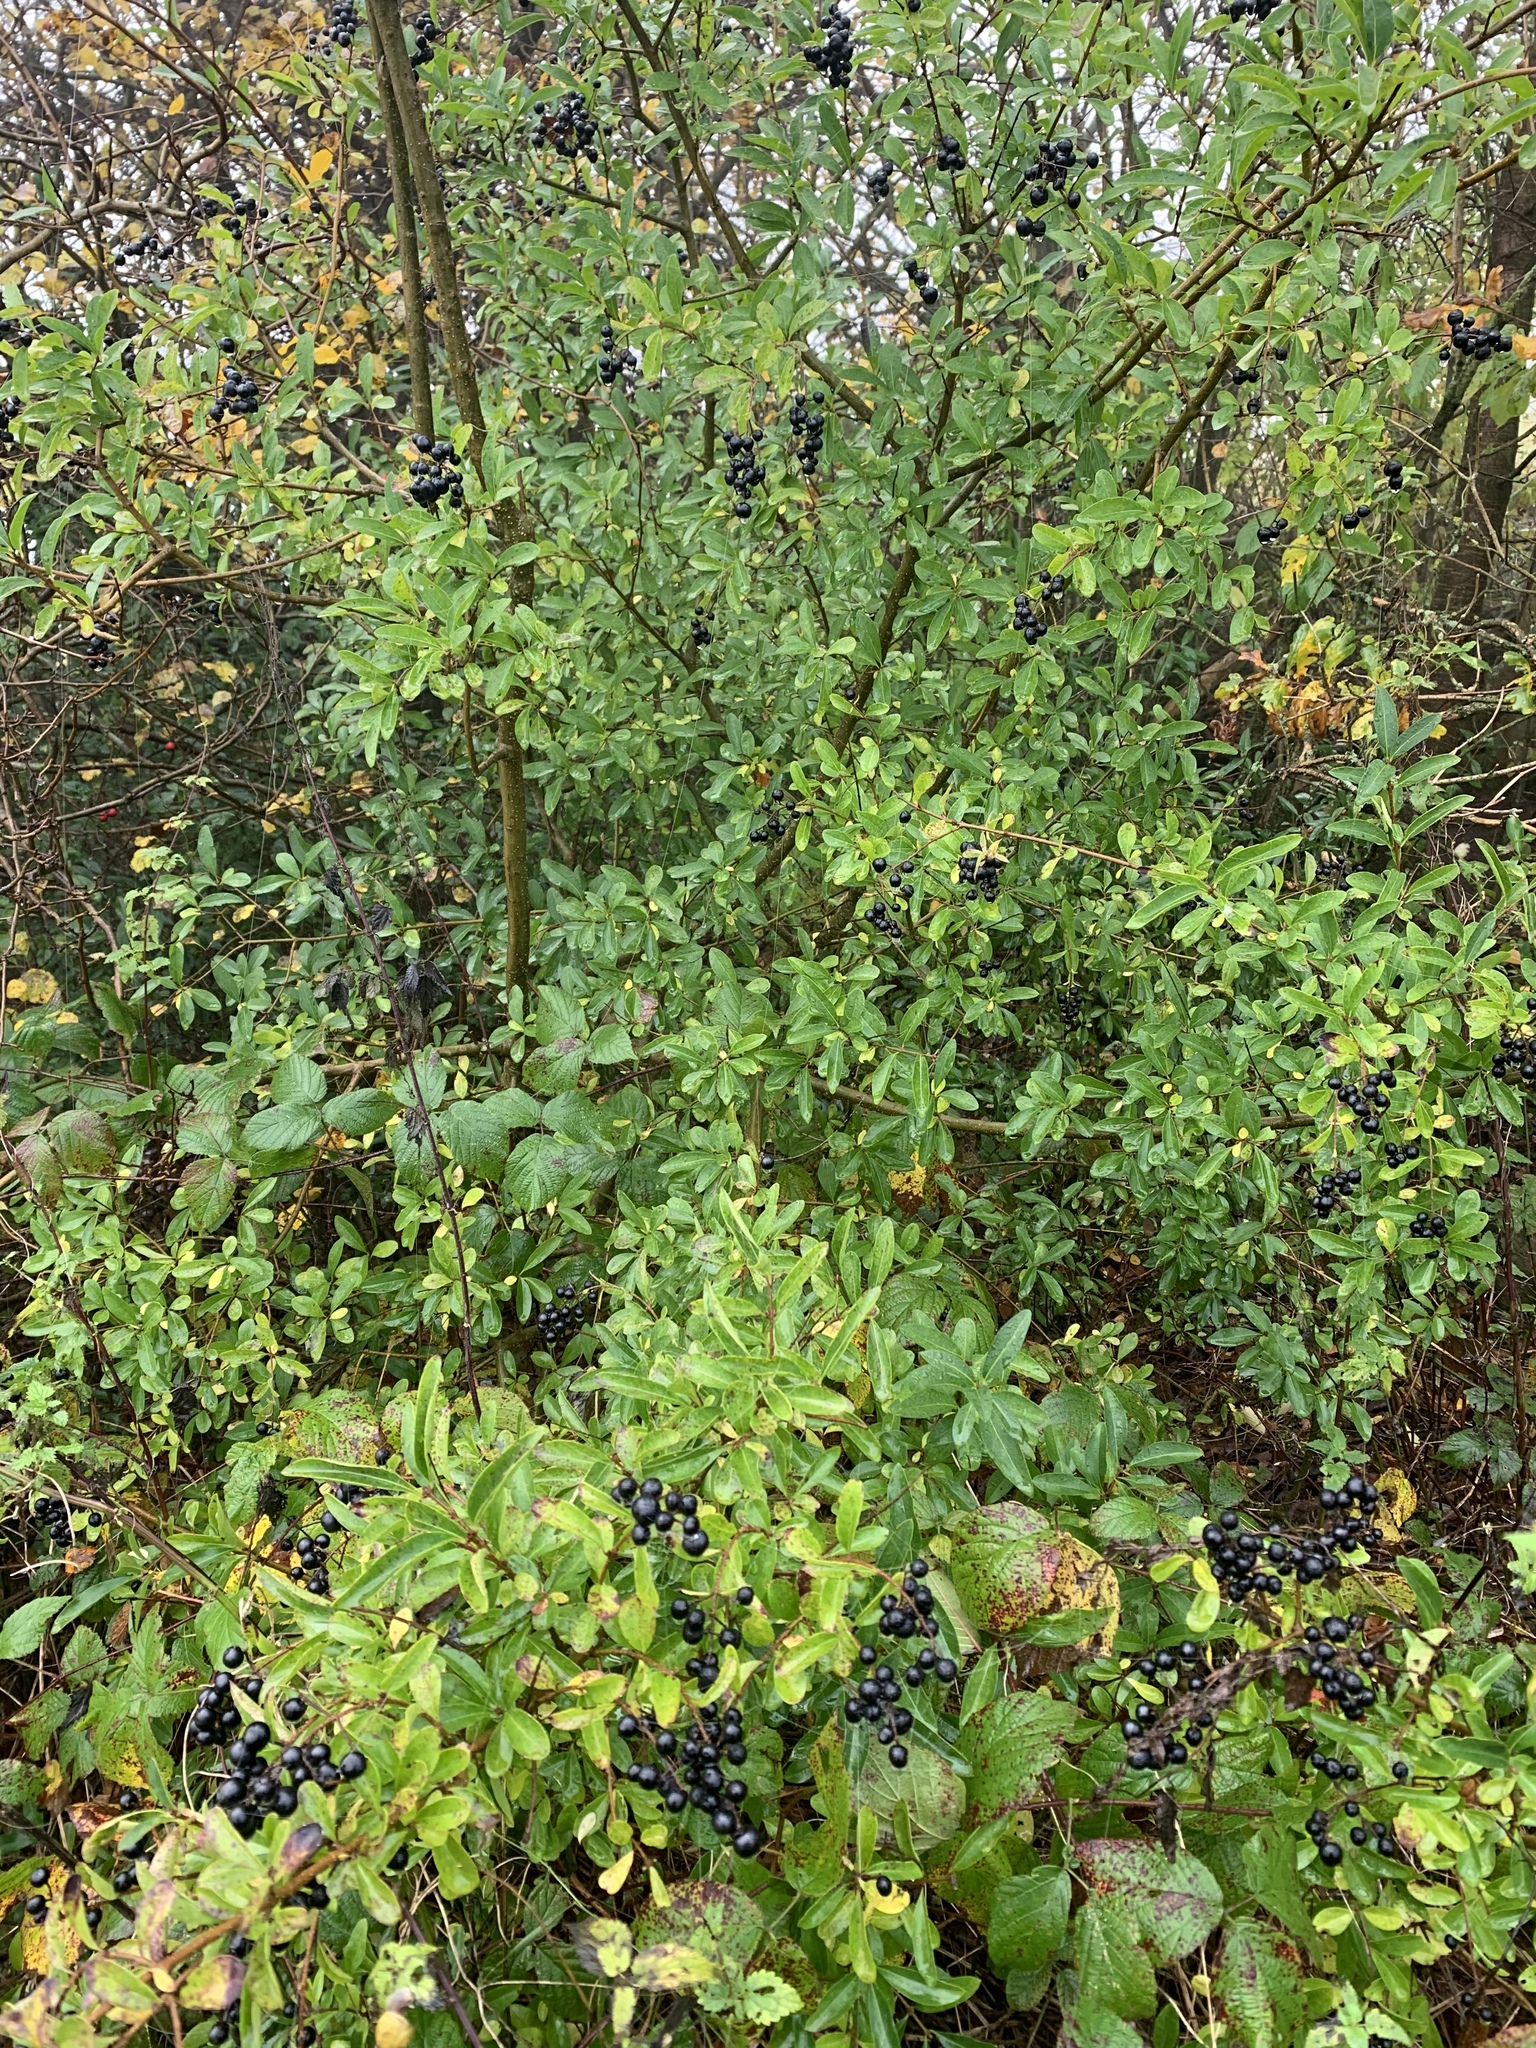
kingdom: Plantae
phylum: Tracheophyta
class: Magnoliopsida
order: Lamiales
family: Oleaceae
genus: Ligustrum
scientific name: Ligustrum vulgare
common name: Wild privet
